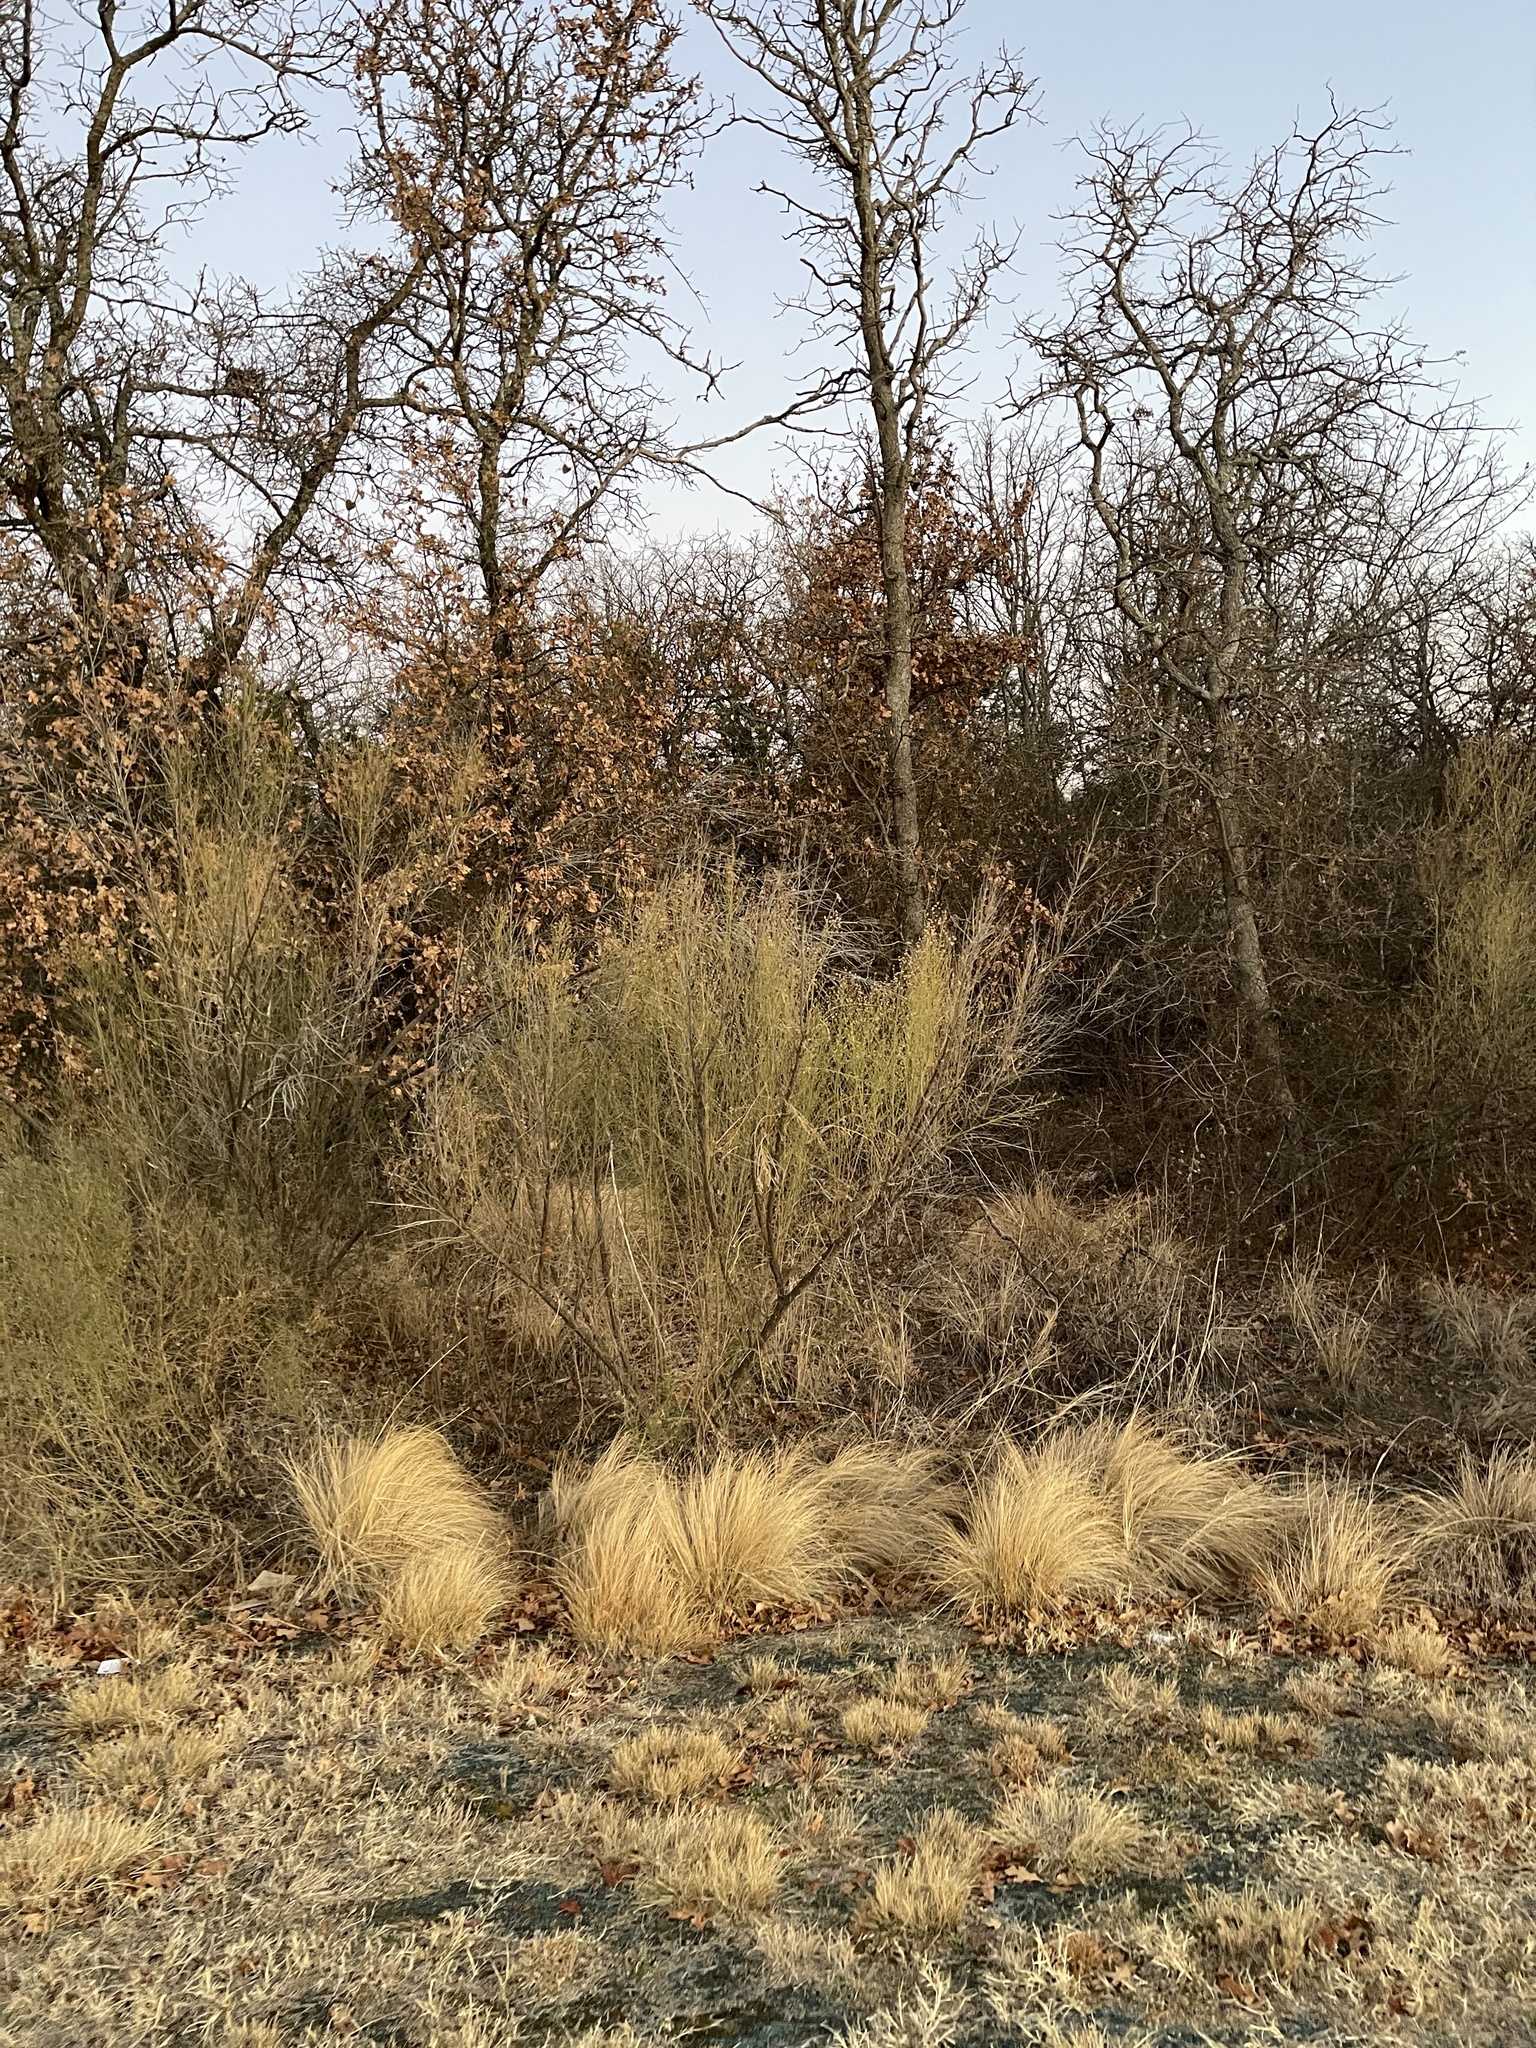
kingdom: Plantae
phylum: Tracheophyta
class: Magnoliopsida
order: Asterales
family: Asteraceae
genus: Baccharis
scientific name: Baccharis neglecta
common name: Roosevelt-weed
